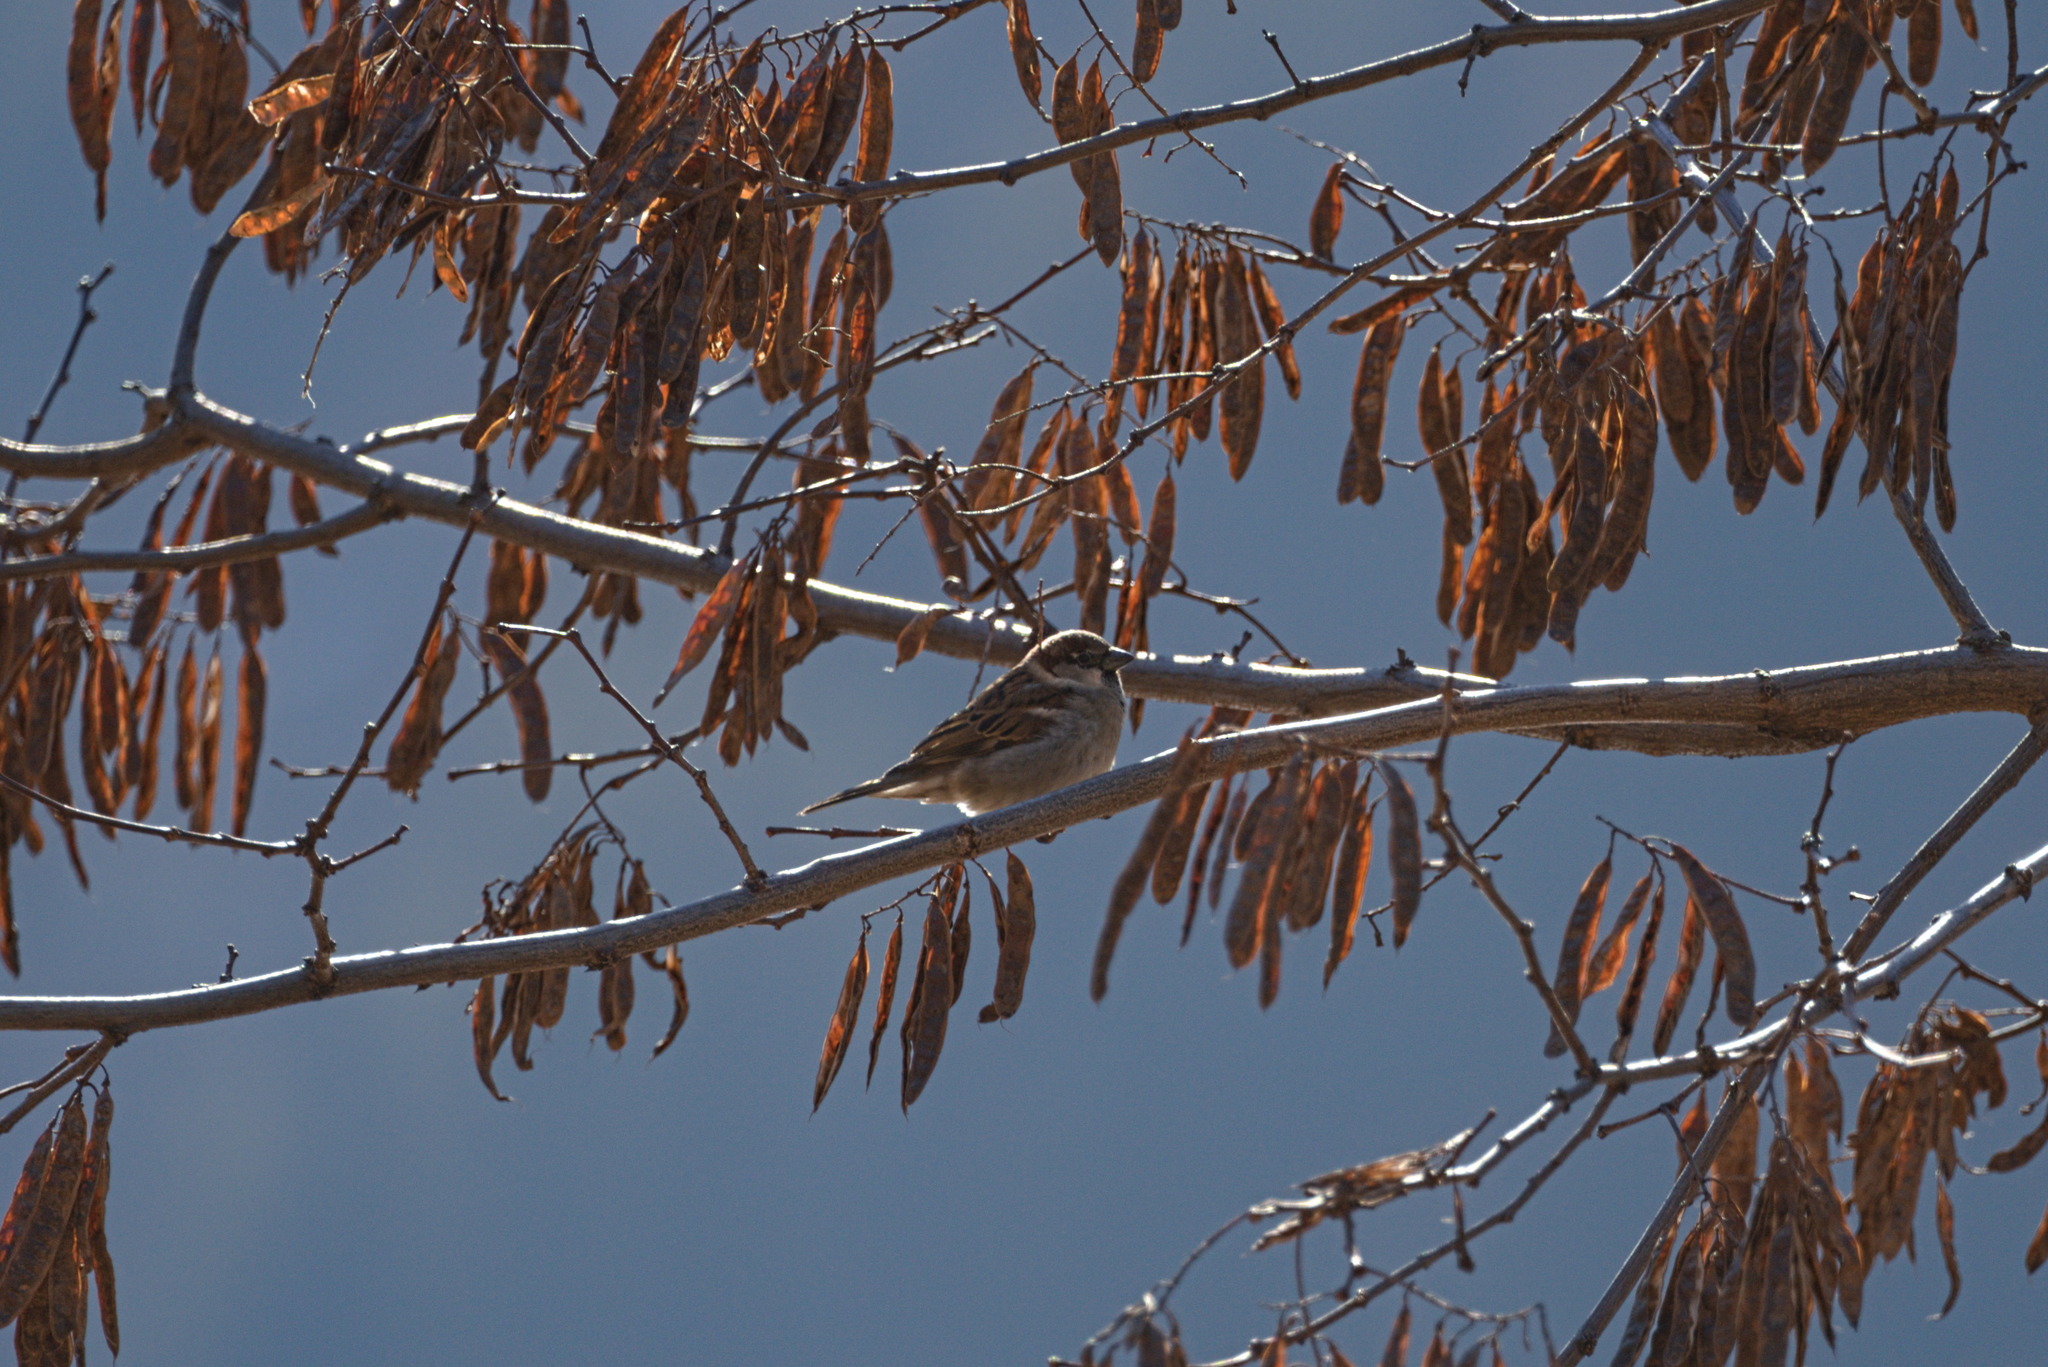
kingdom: Animalia
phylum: Chordata
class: Aves
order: Passeriformes
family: Passeridae
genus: Passer
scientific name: Passer domesticus
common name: House sparrow
